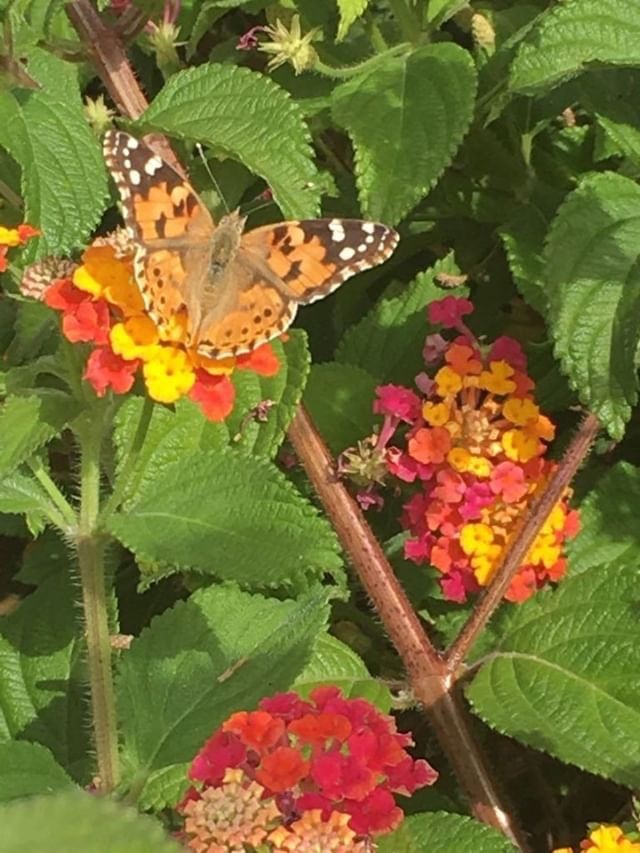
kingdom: Animalia
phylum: Arthropoda
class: Insecta
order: Lepidoptera
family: Nymphalidae
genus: Vanessa
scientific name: Vanessa cardui
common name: Painted lady
